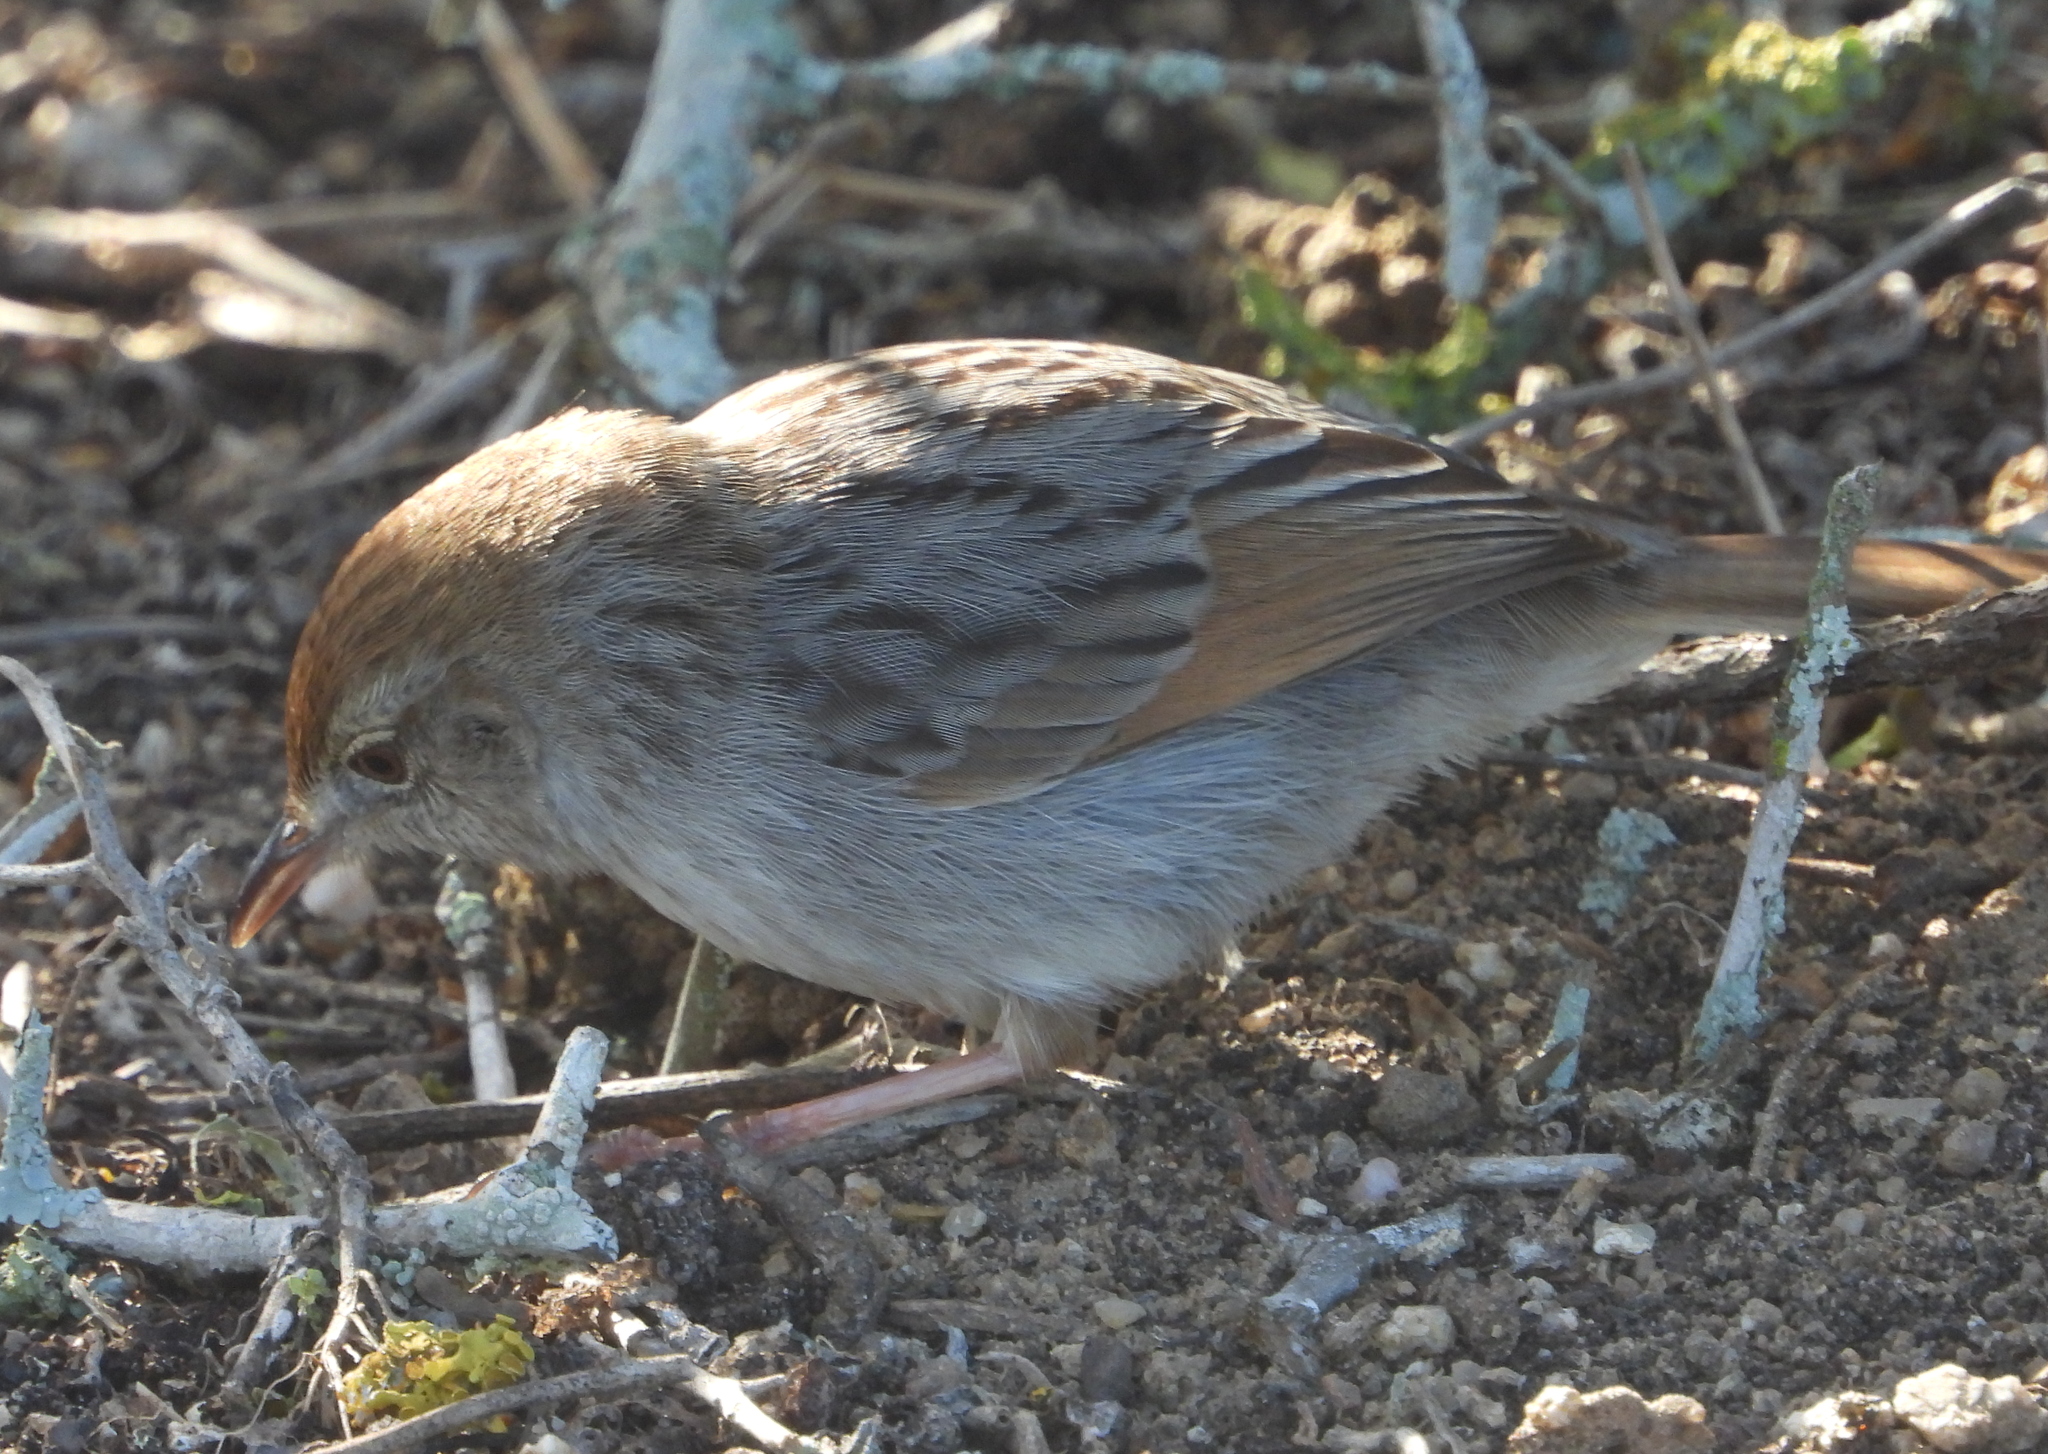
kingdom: Animalia
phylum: Chordata
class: Aves
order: Passeriformes
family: Cisticolidae
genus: Cisticola
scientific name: Cisticola subruficapilla
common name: Grey-backed cisticola
